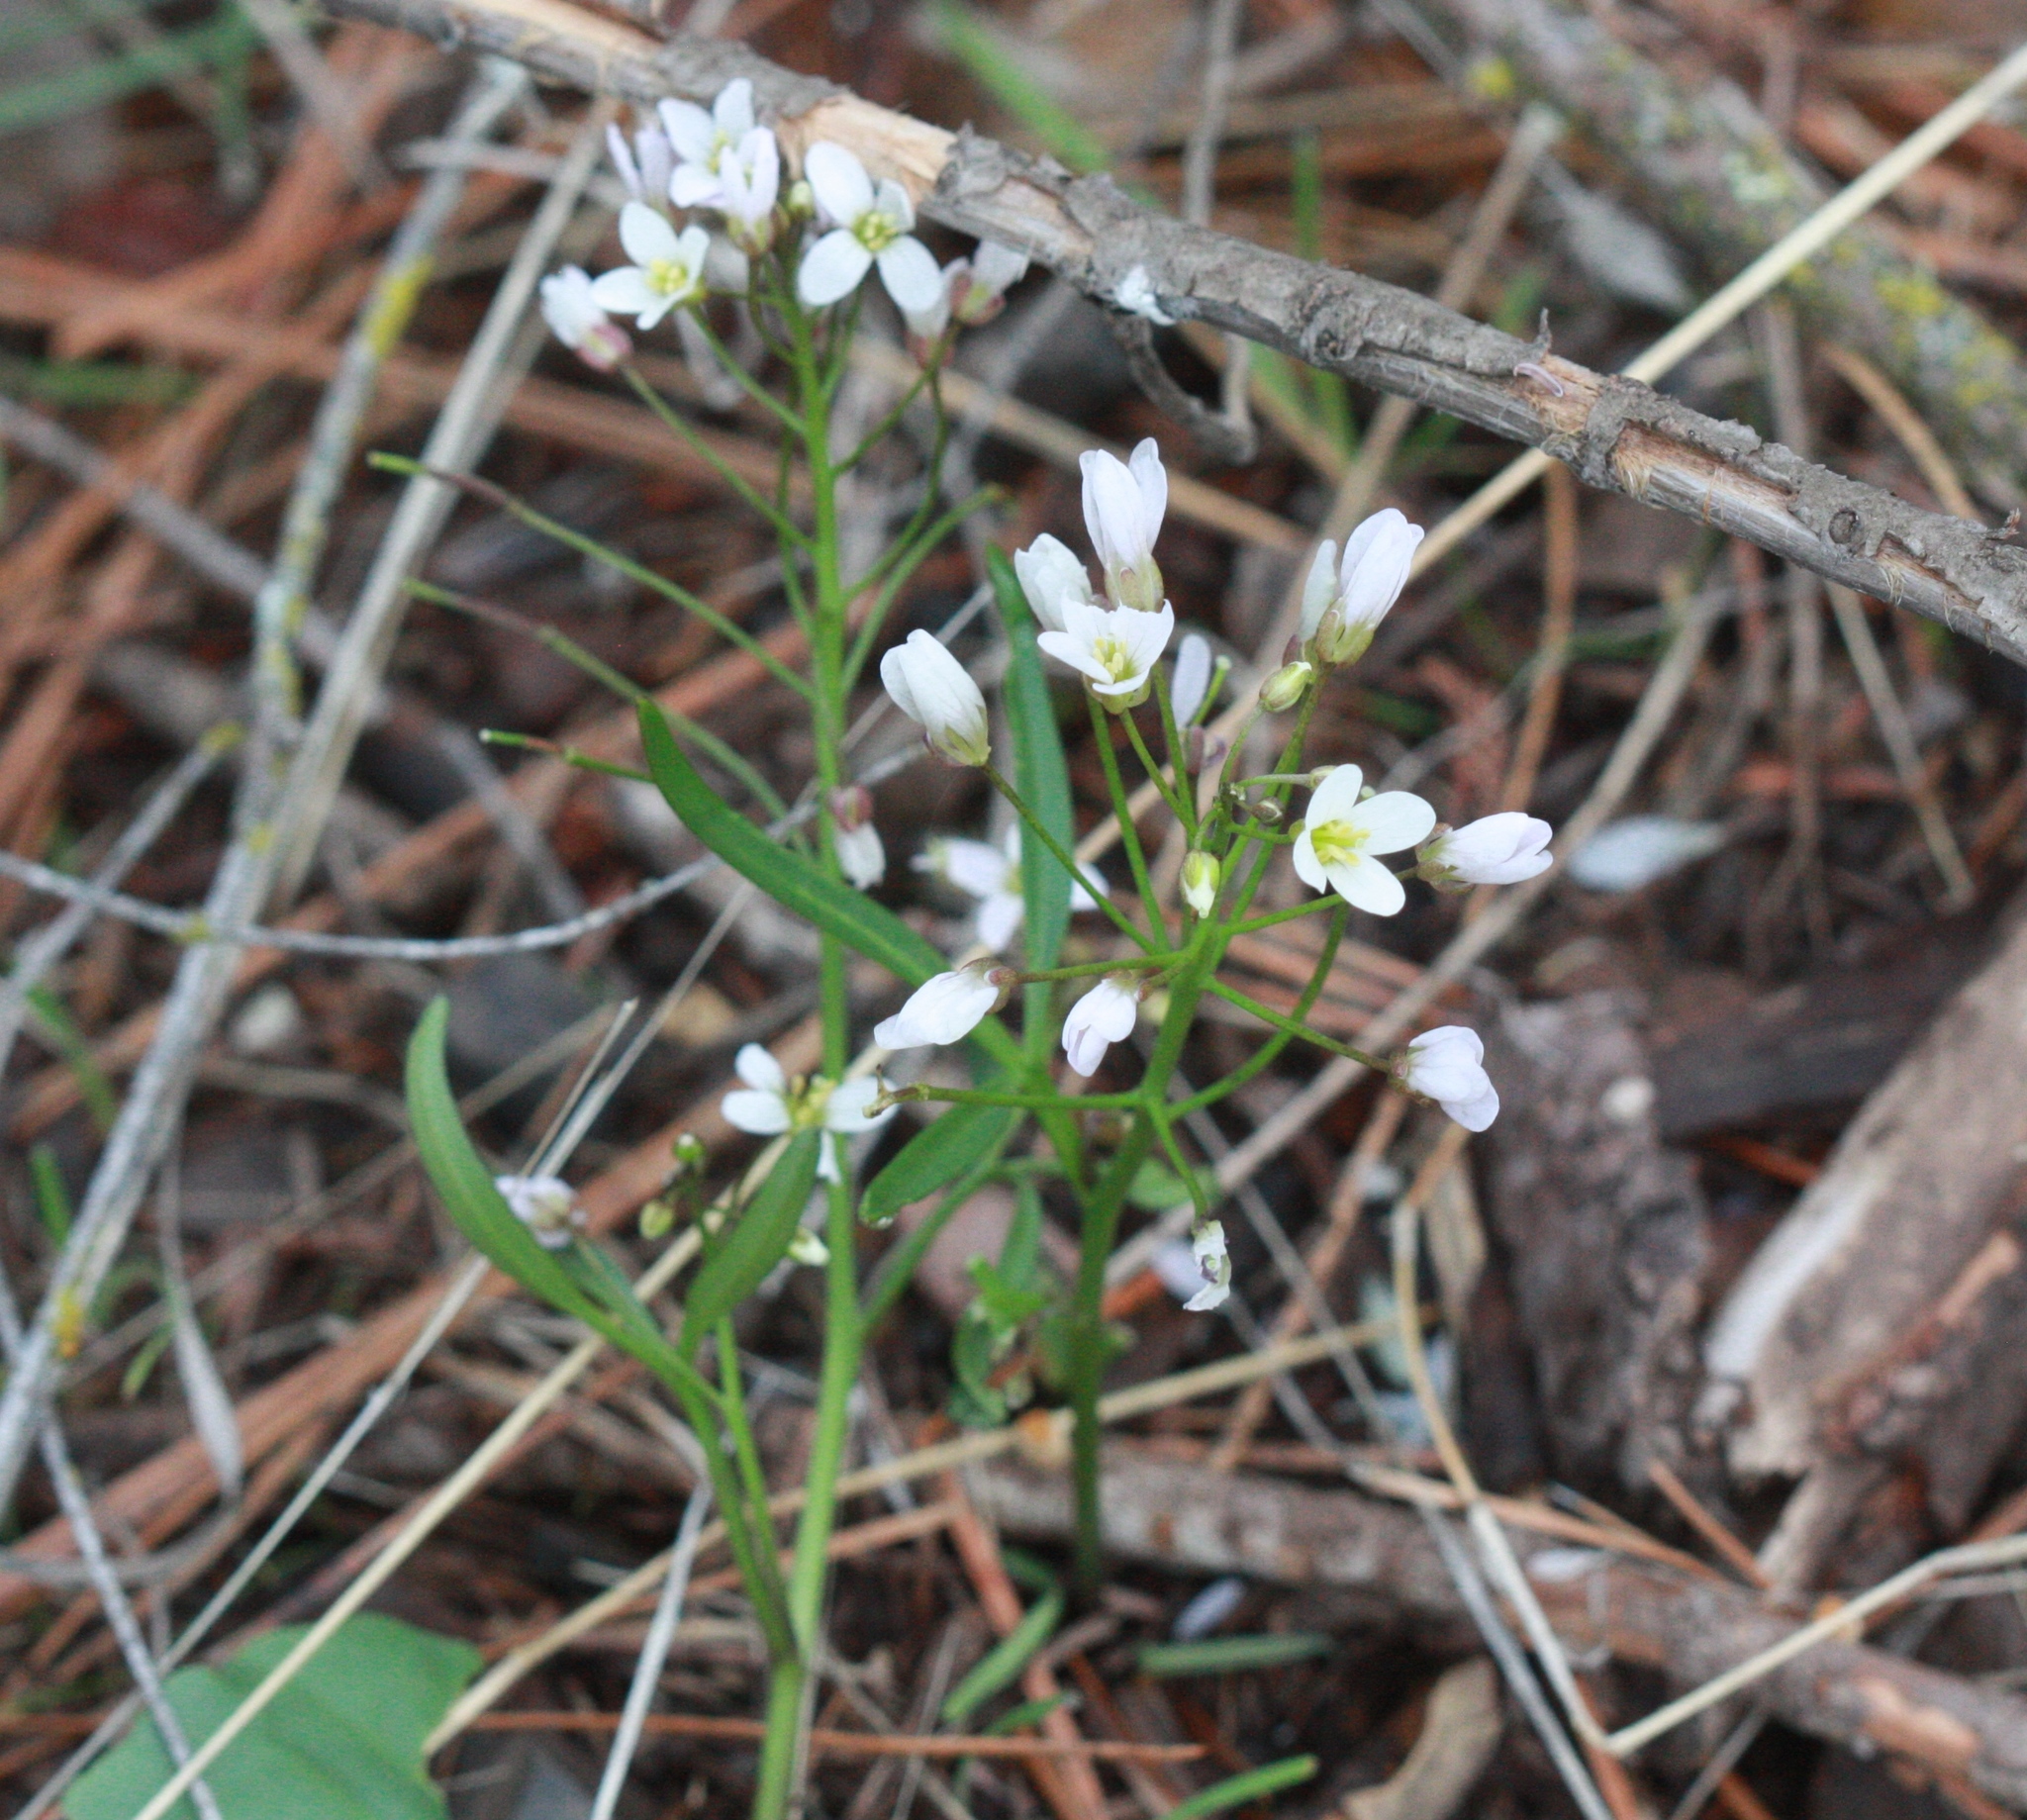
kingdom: Plantae
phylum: Tracheophyta
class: Magnoliopsida
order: Brassicales
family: Brassicaceae
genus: Cardamine
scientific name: Cardamine californica
